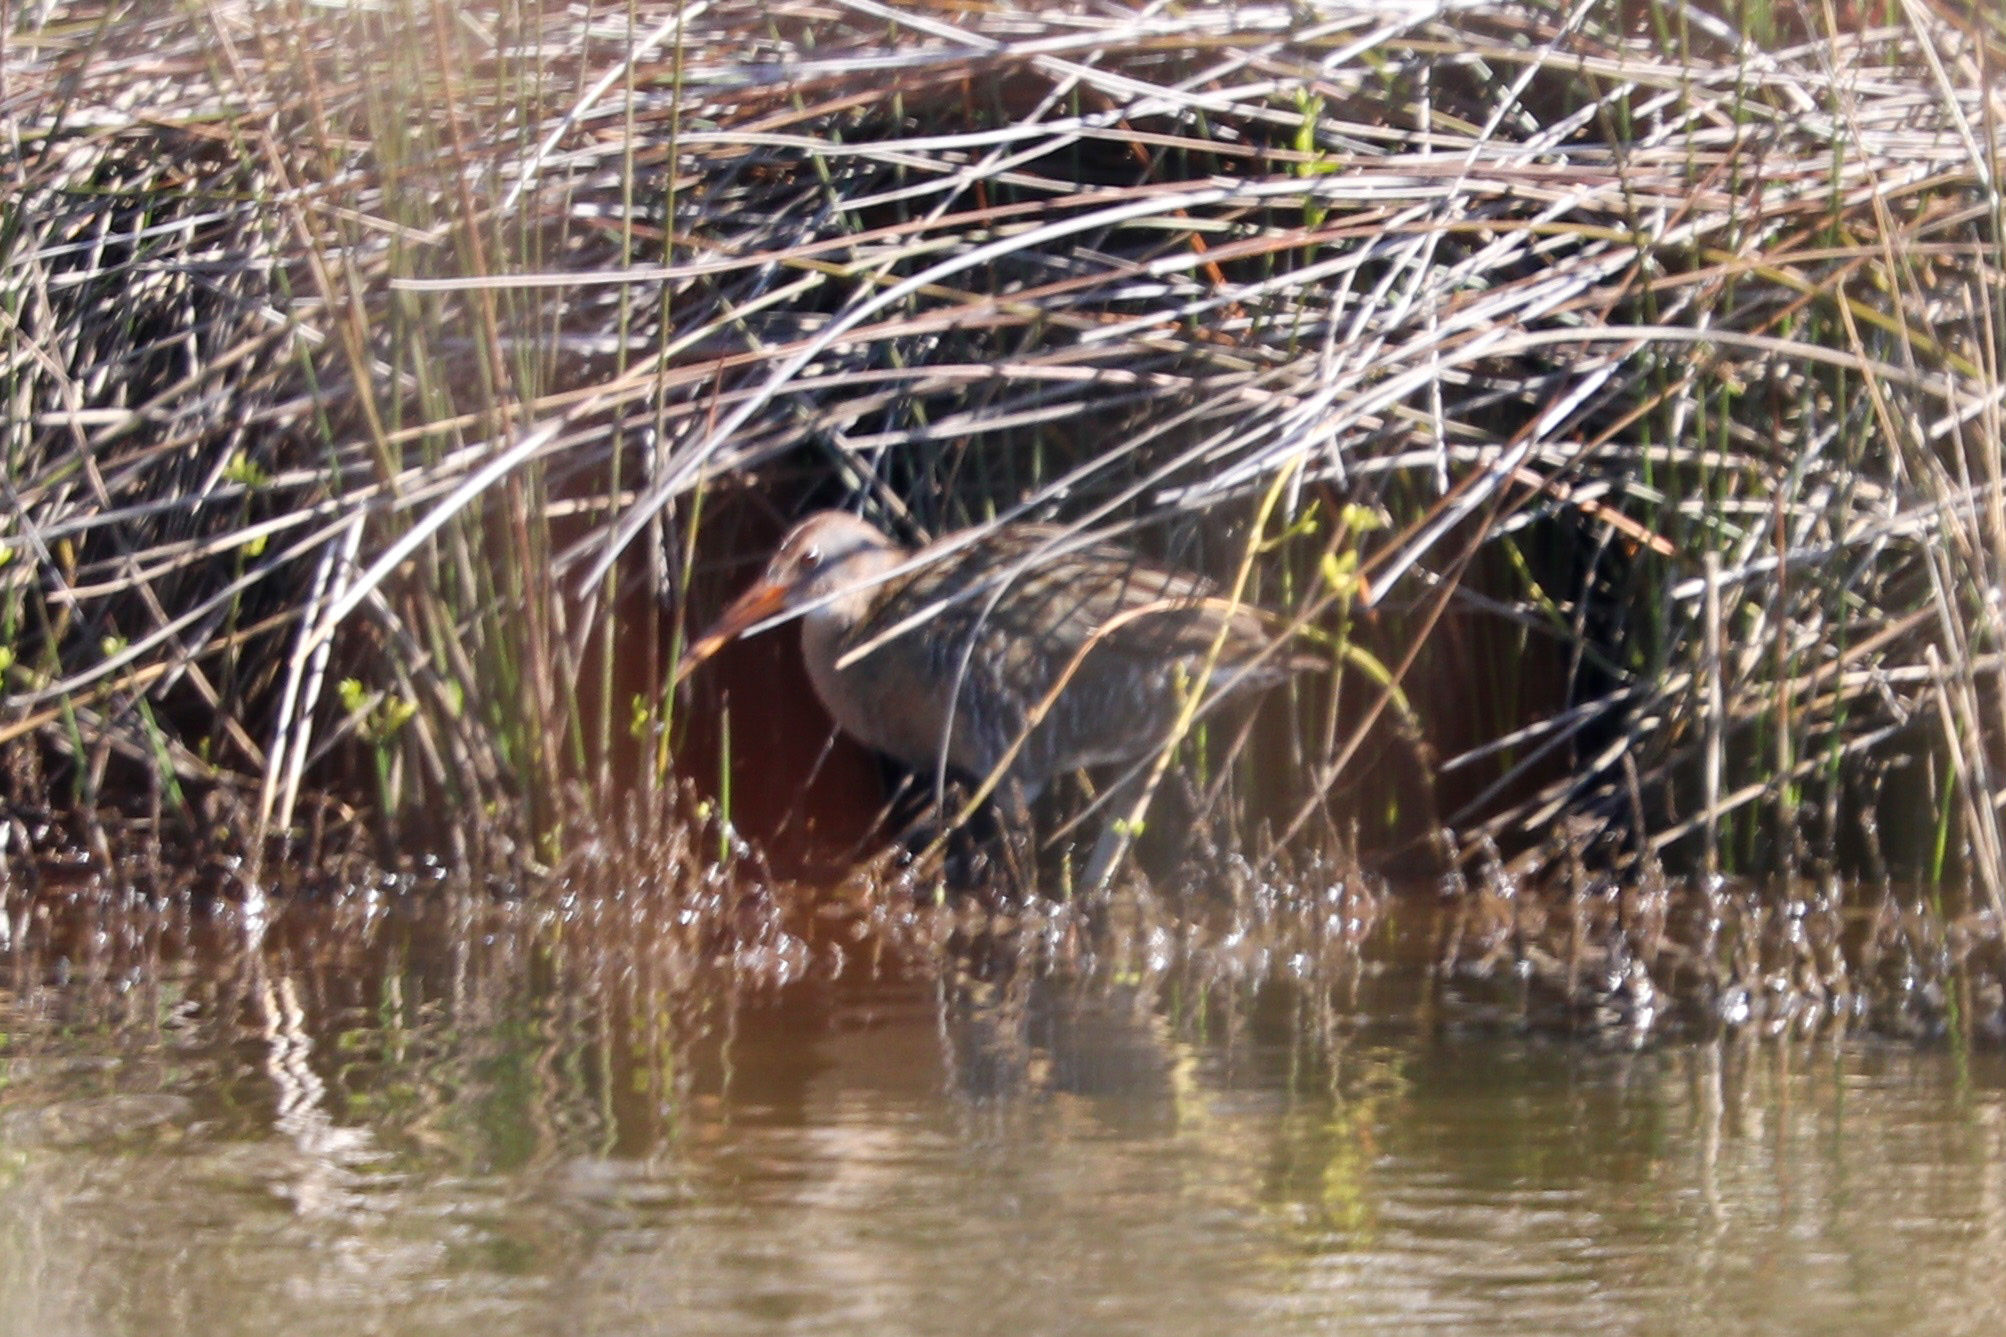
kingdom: Animalia
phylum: Chordata
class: Aves
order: Gruiformes
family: Rallidae
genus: Rallus
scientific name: Rallus crepitans
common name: Clapper rail
